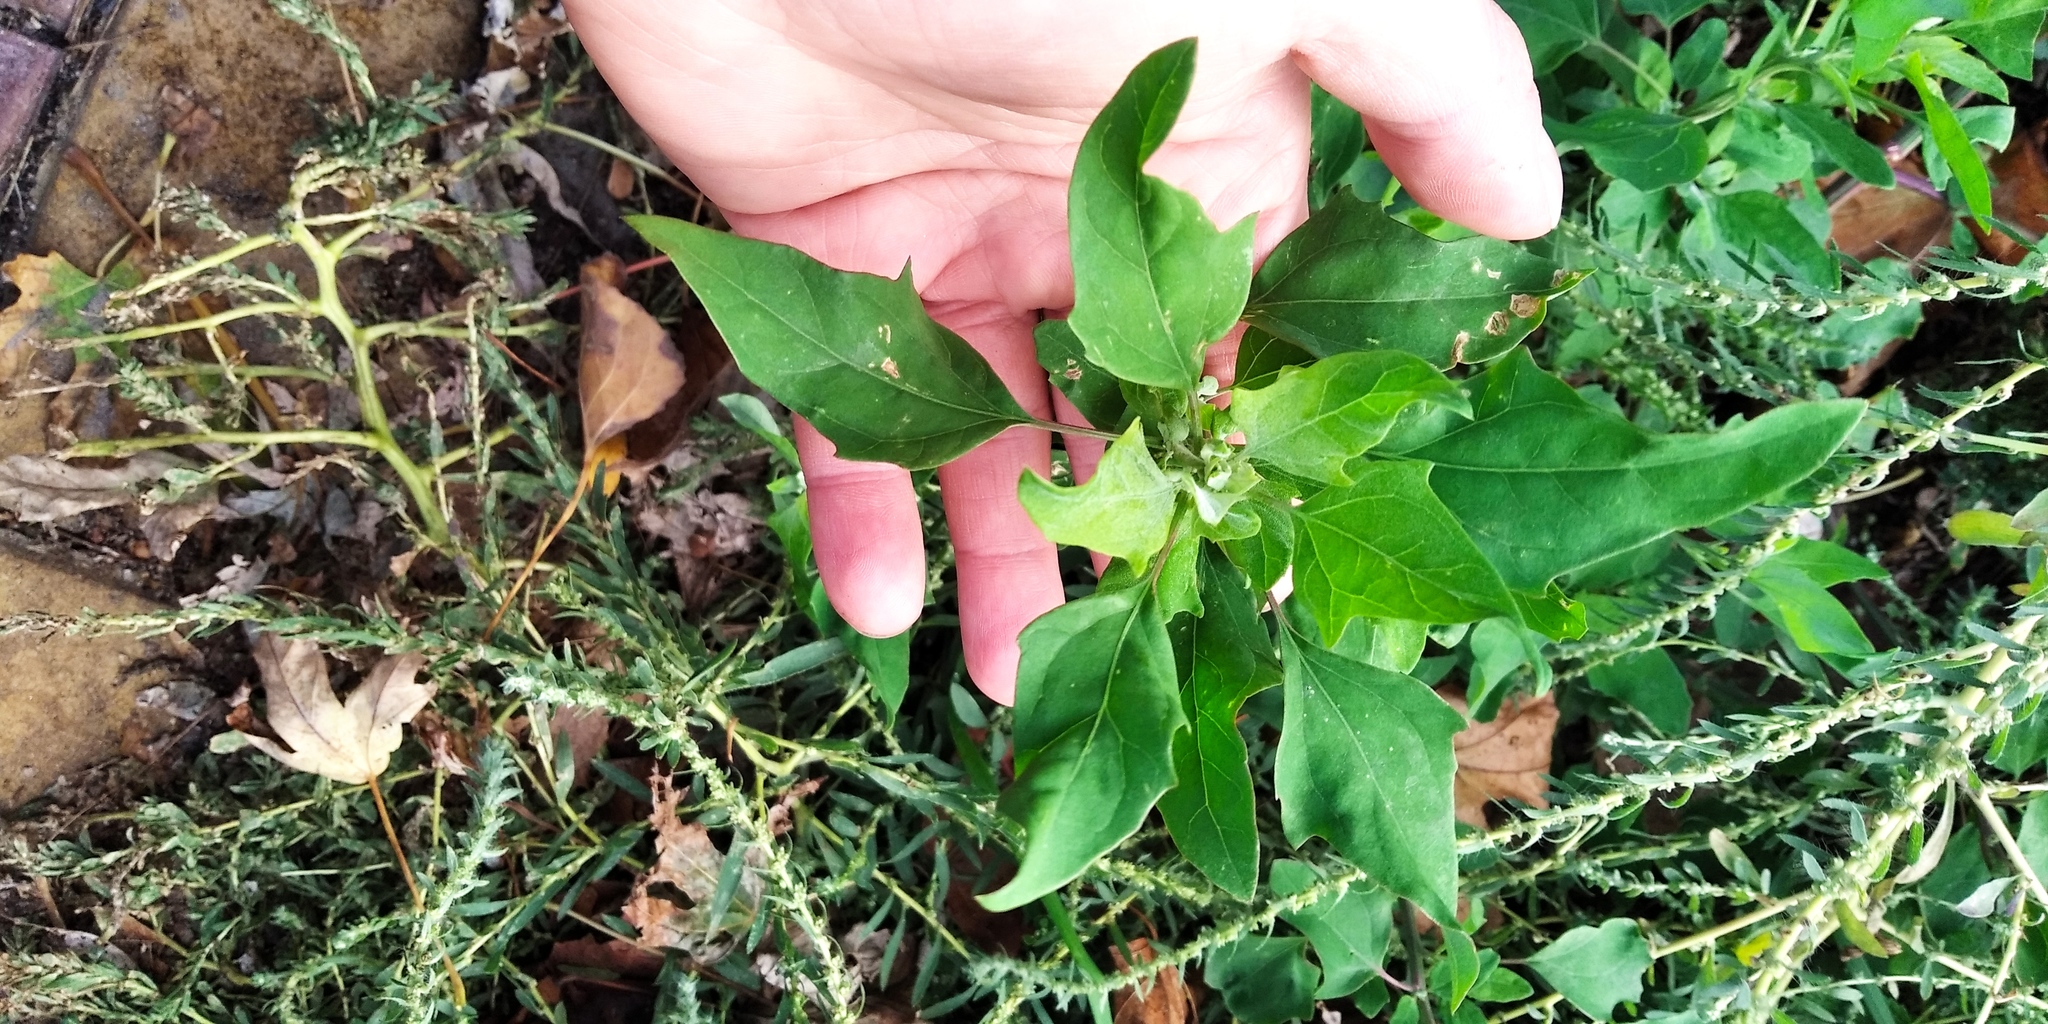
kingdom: Plantae
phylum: Tracheophyta
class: Magnoliopsida
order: Caryophyllales
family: Amaranthaceae
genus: Chenopodium
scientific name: Chenopodium album
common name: Fat-hen
